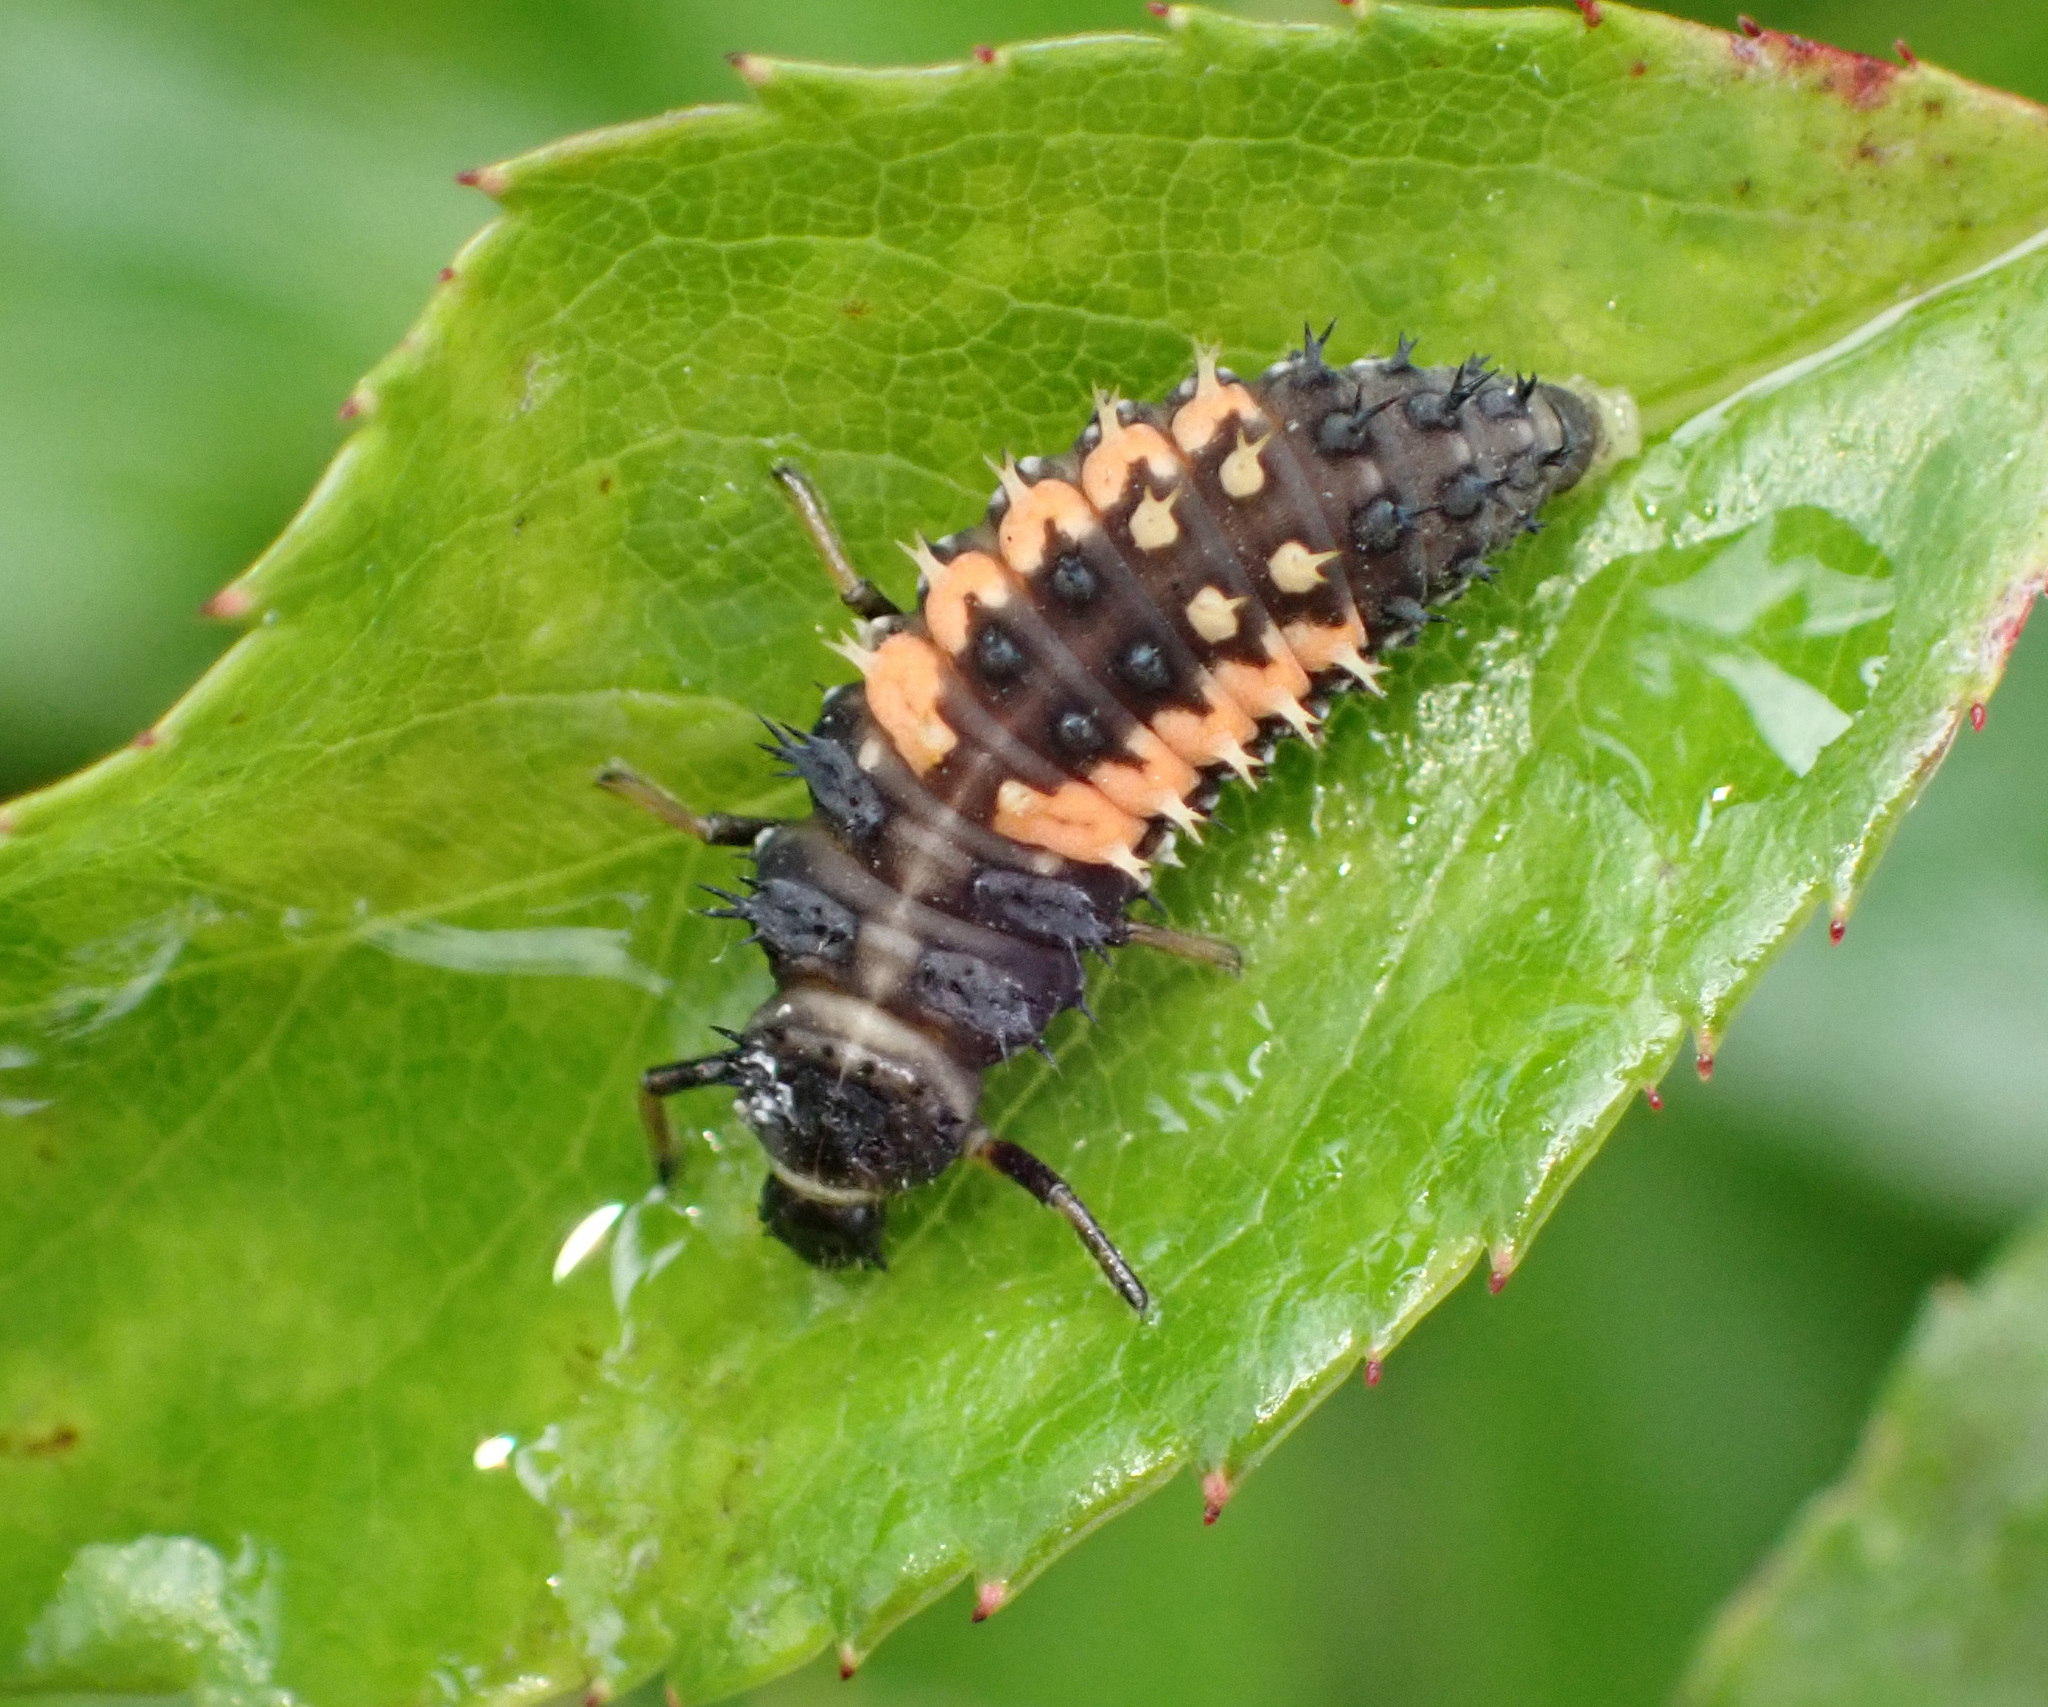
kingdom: Animalia
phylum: Arthropoda
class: Insecta
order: Coleoptera
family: Coccinellidae
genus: Harmonia
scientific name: Harmonia axyridis
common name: Harlequin ladybird
